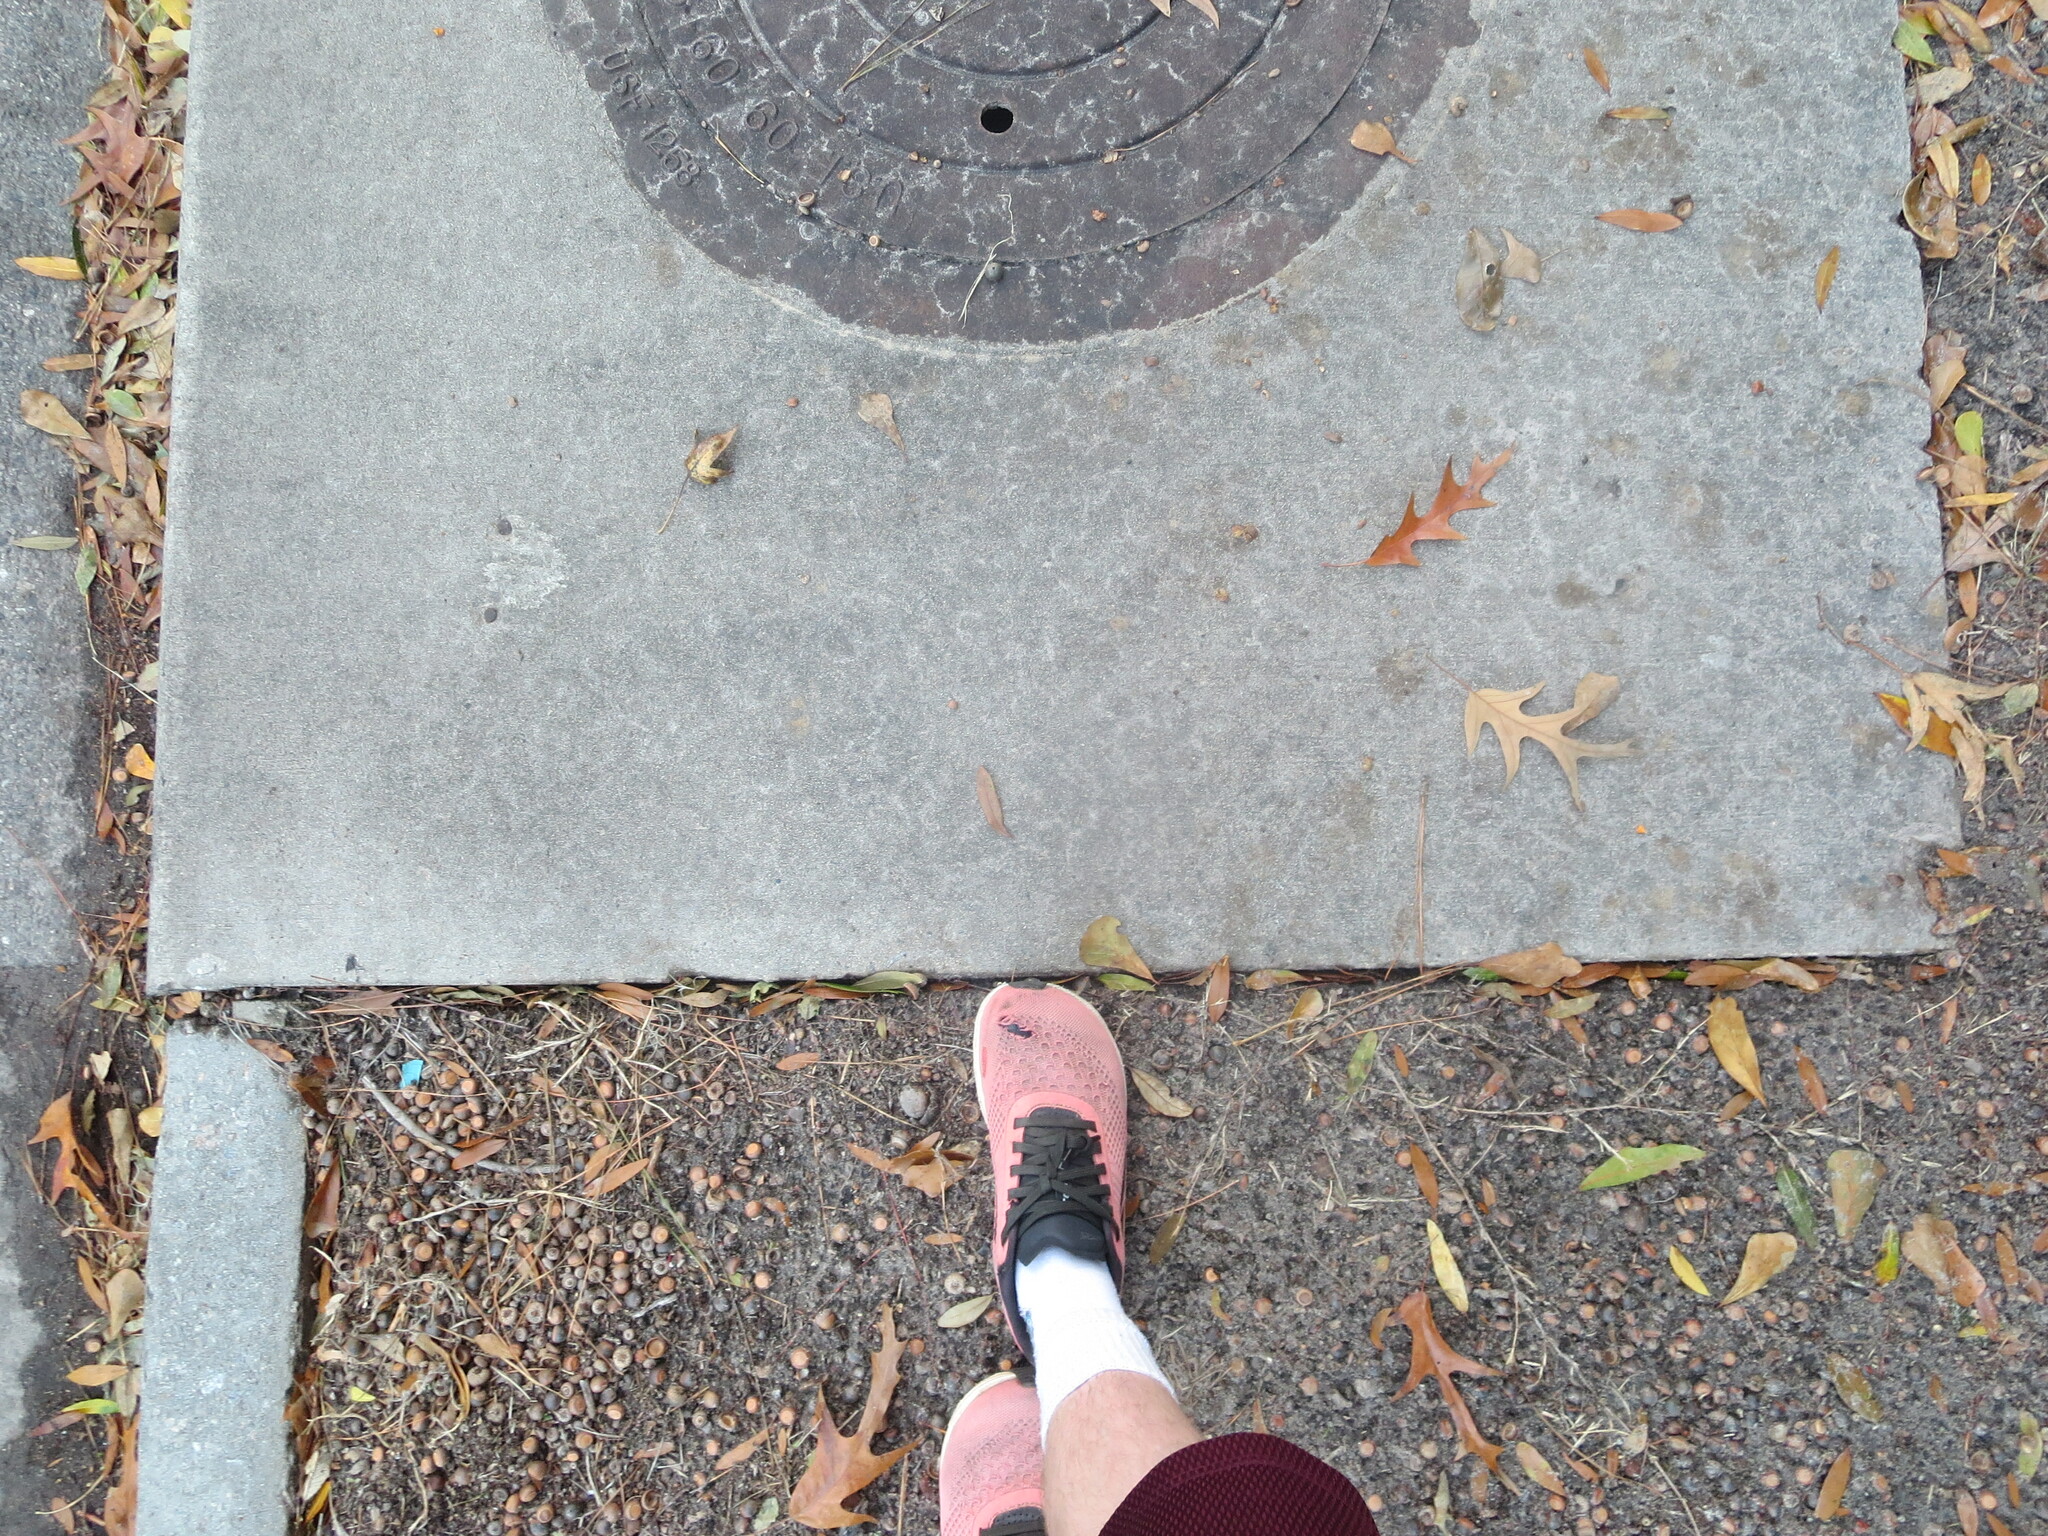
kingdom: Plantae
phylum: Tracheophyta
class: Magnoliopsida
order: Fagales
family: Fagaceae
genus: Quercus
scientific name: Quercus falcata
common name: Southern red oak
